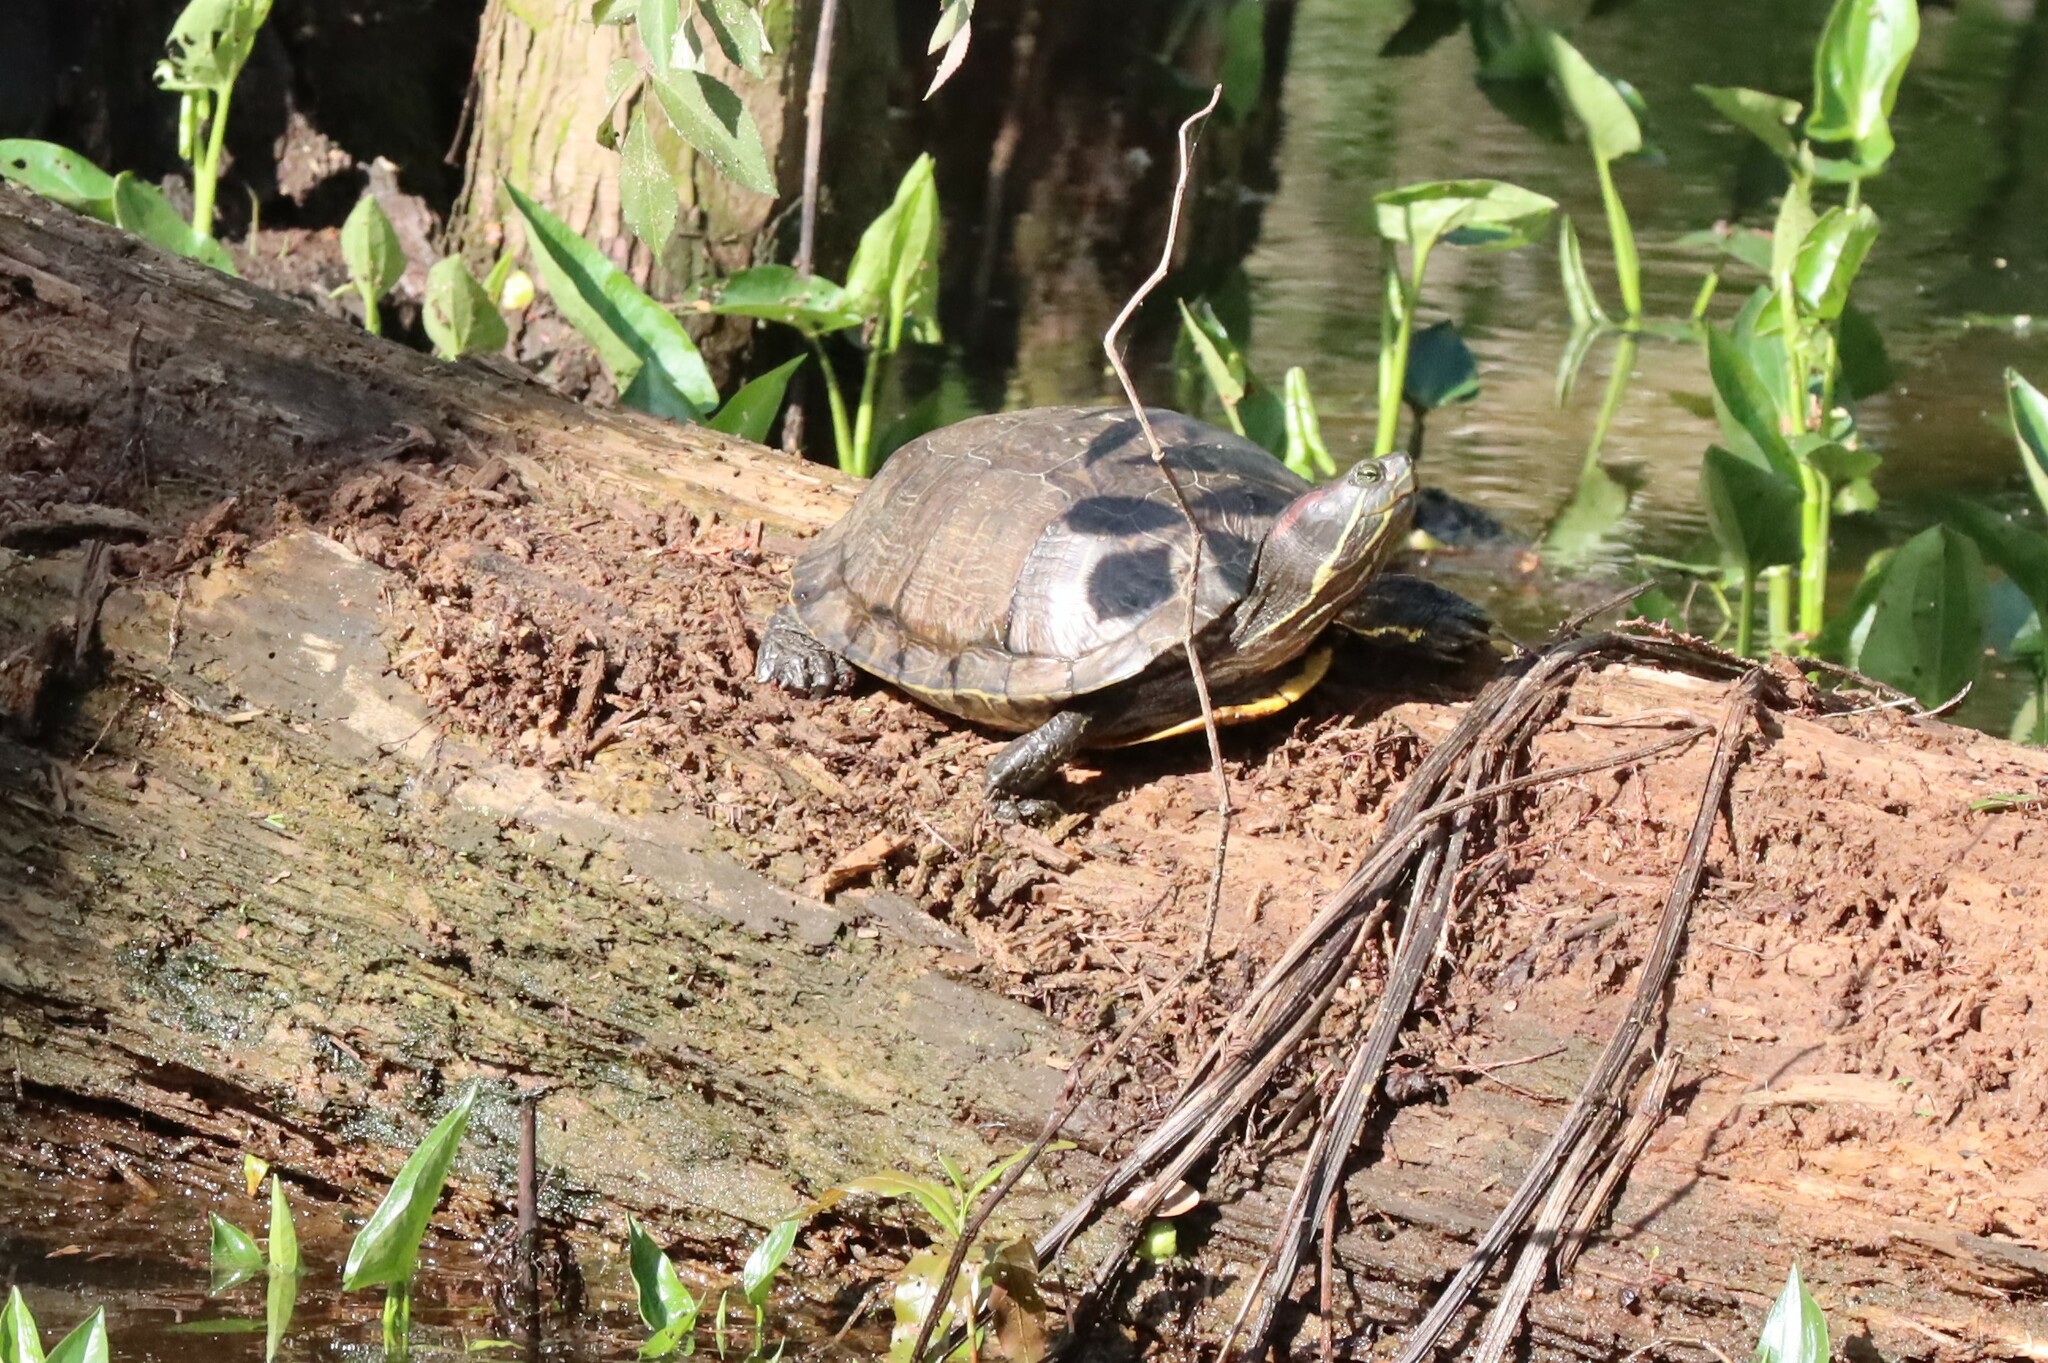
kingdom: Animalia
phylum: Chordata
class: Testudines
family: Emydidae
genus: Trachemys
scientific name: Trachemys scripta
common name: Slider
